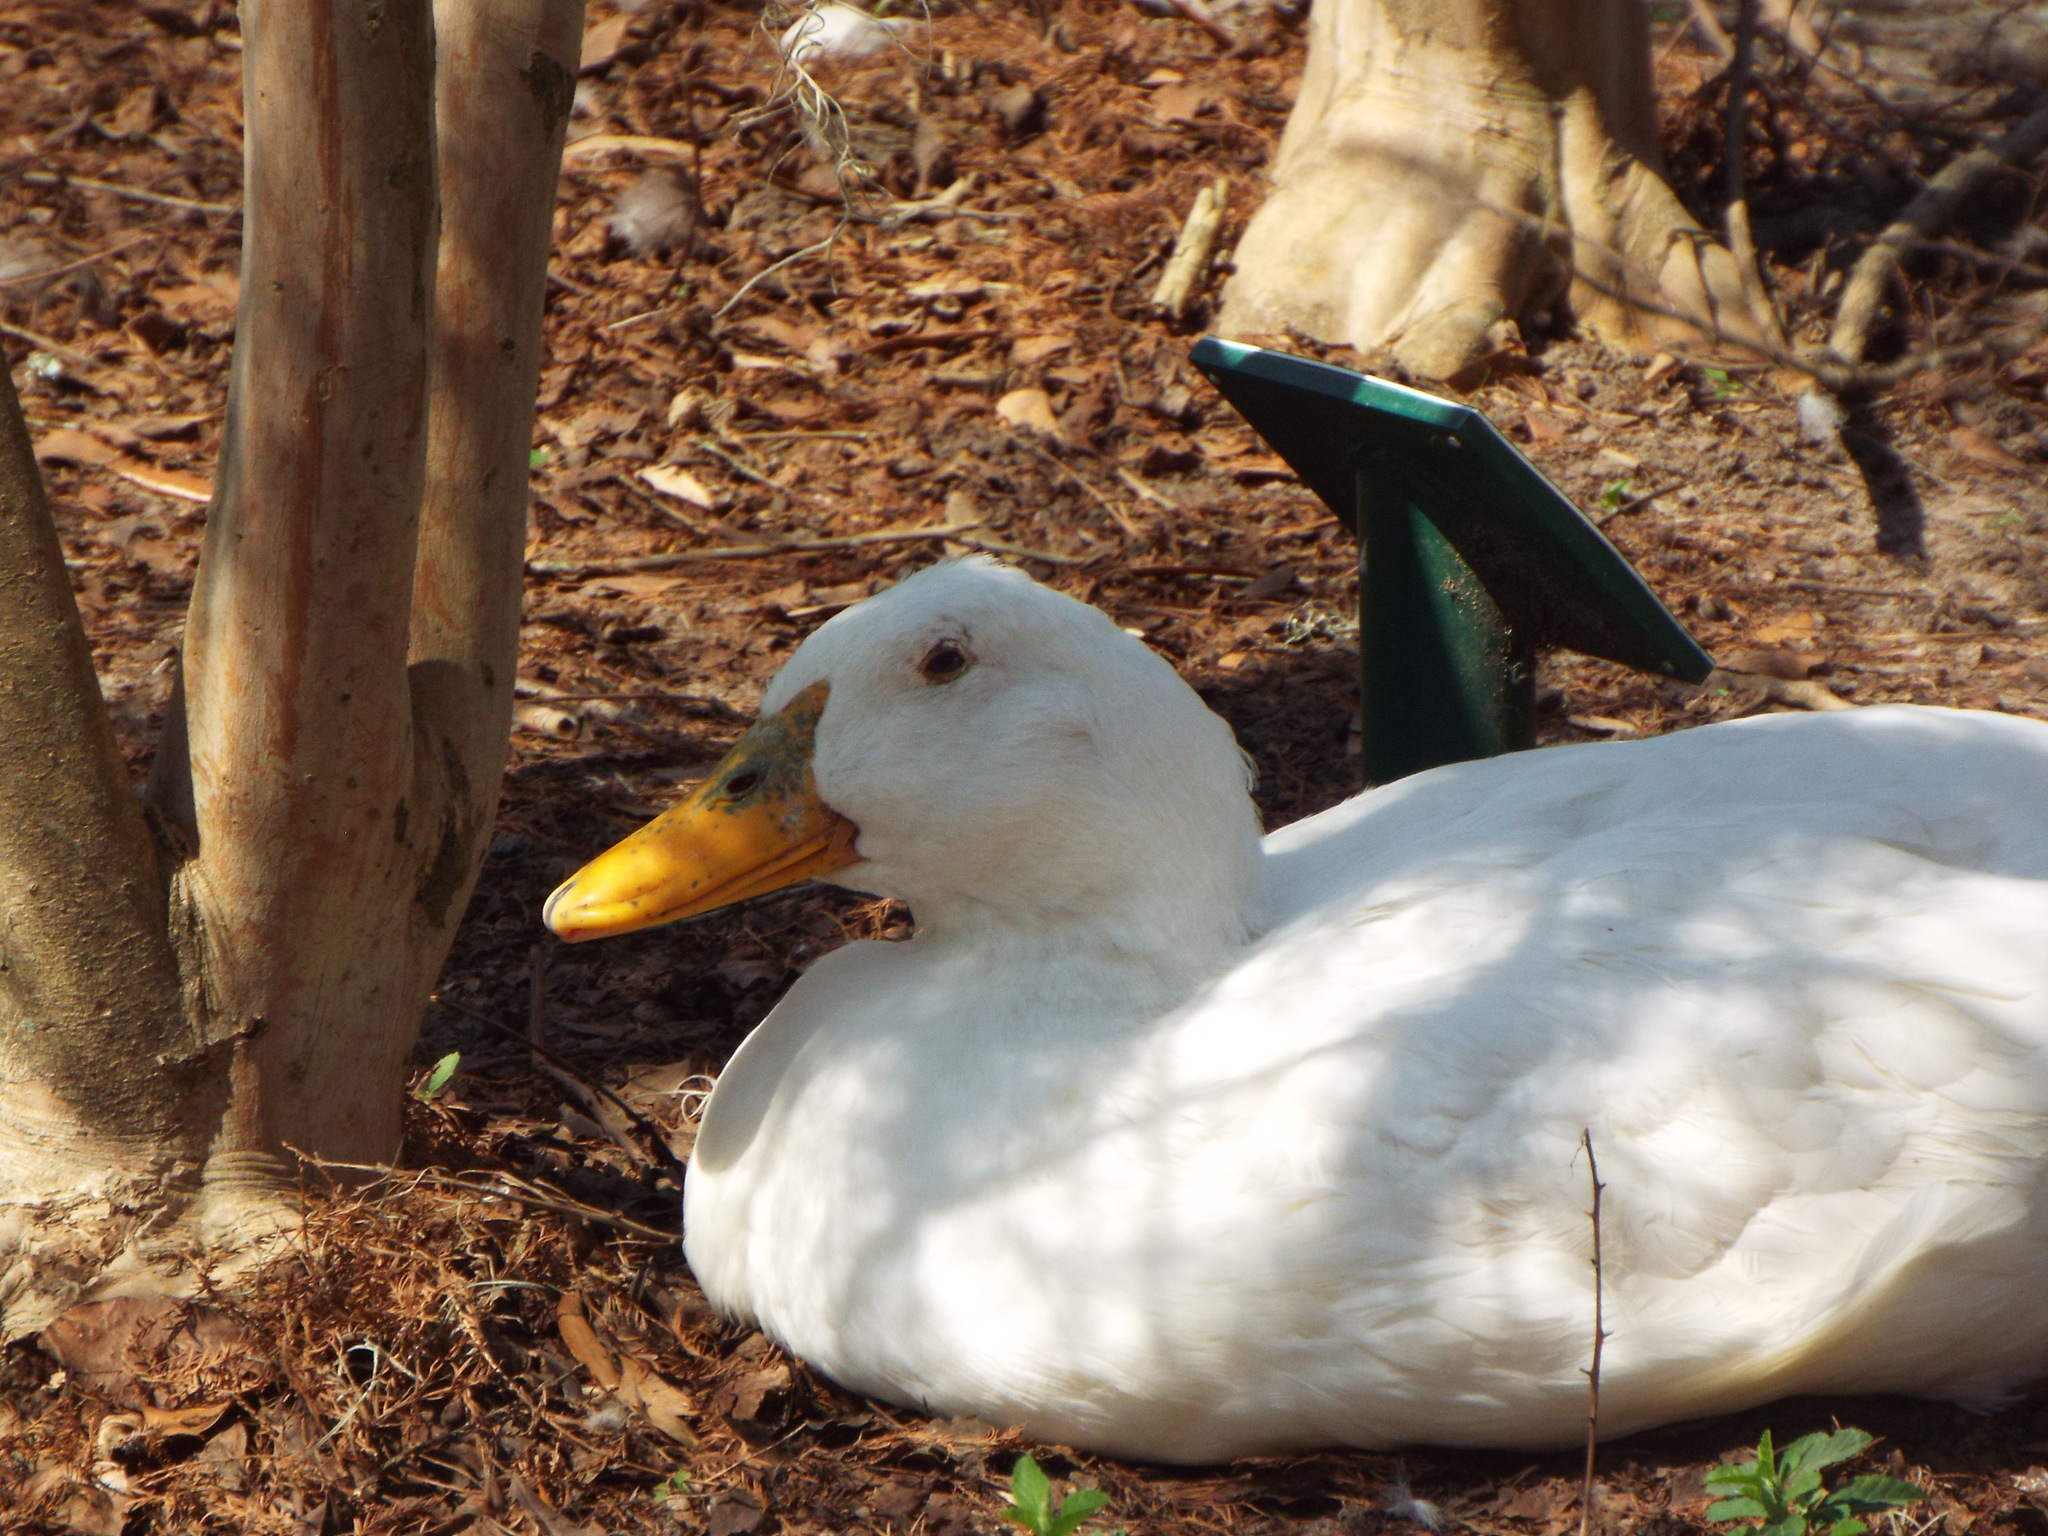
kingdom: Animalia
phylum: Chordata
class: Aves
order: Anseriformes
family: Anatidae
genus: Anas
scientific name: Anas platyrhynchos
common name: Mallard
